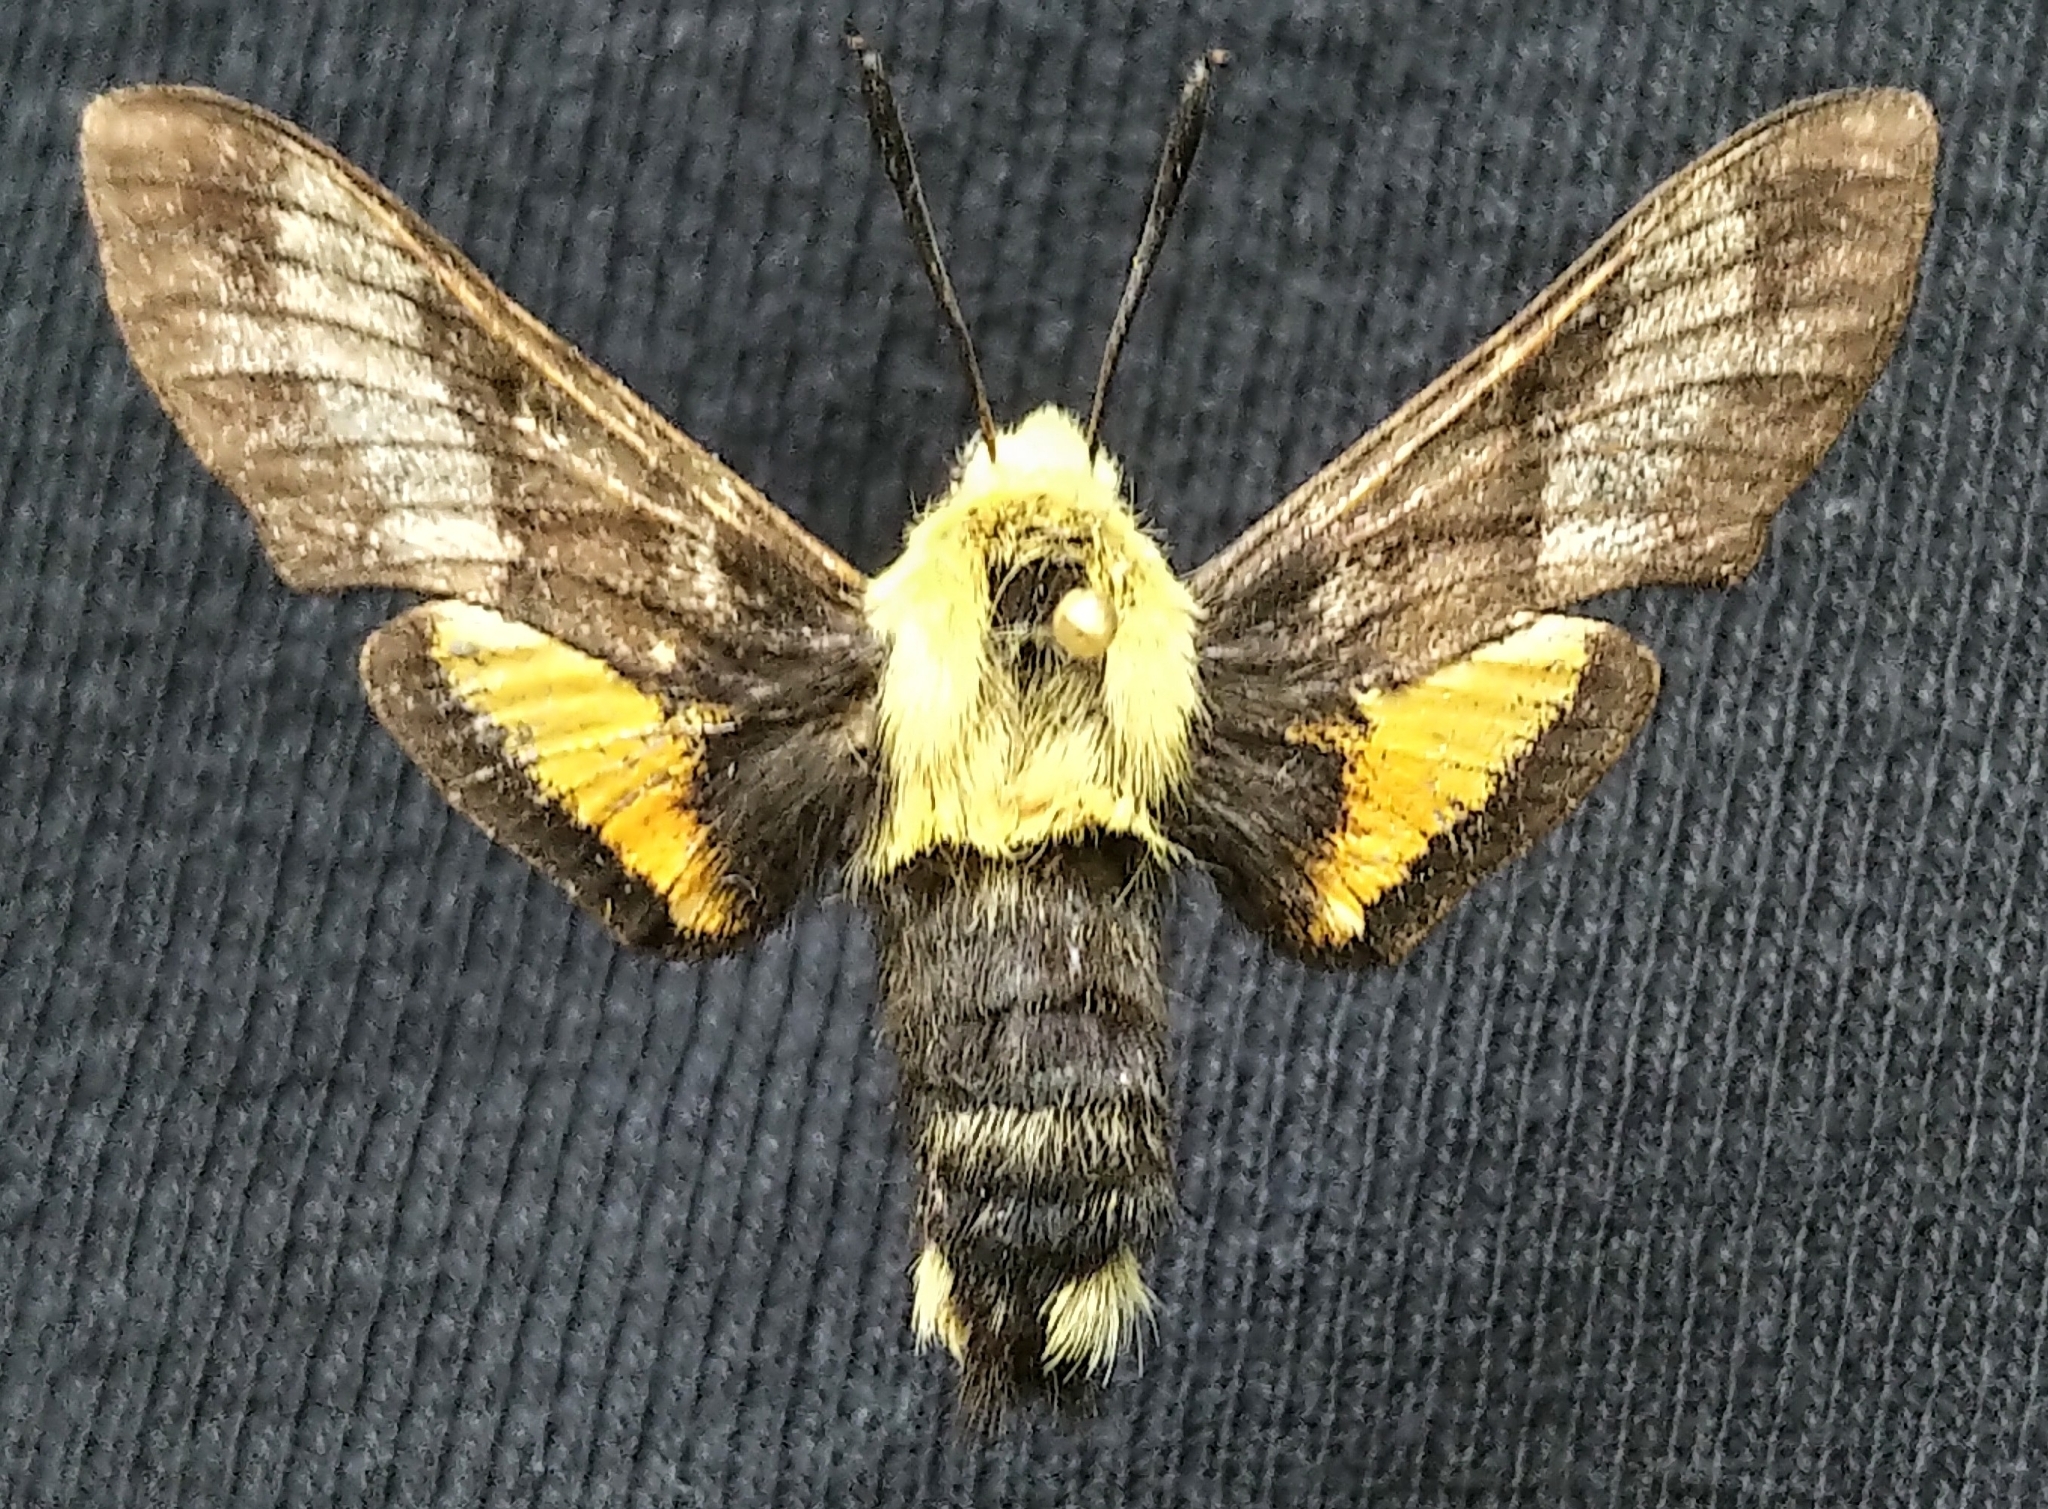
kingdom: Animalia
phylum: Arthropoda
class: Insecta
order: Lepidoptera
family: Sphingidae
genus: Proserpinus
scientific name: Proserpinus flavofasciata
